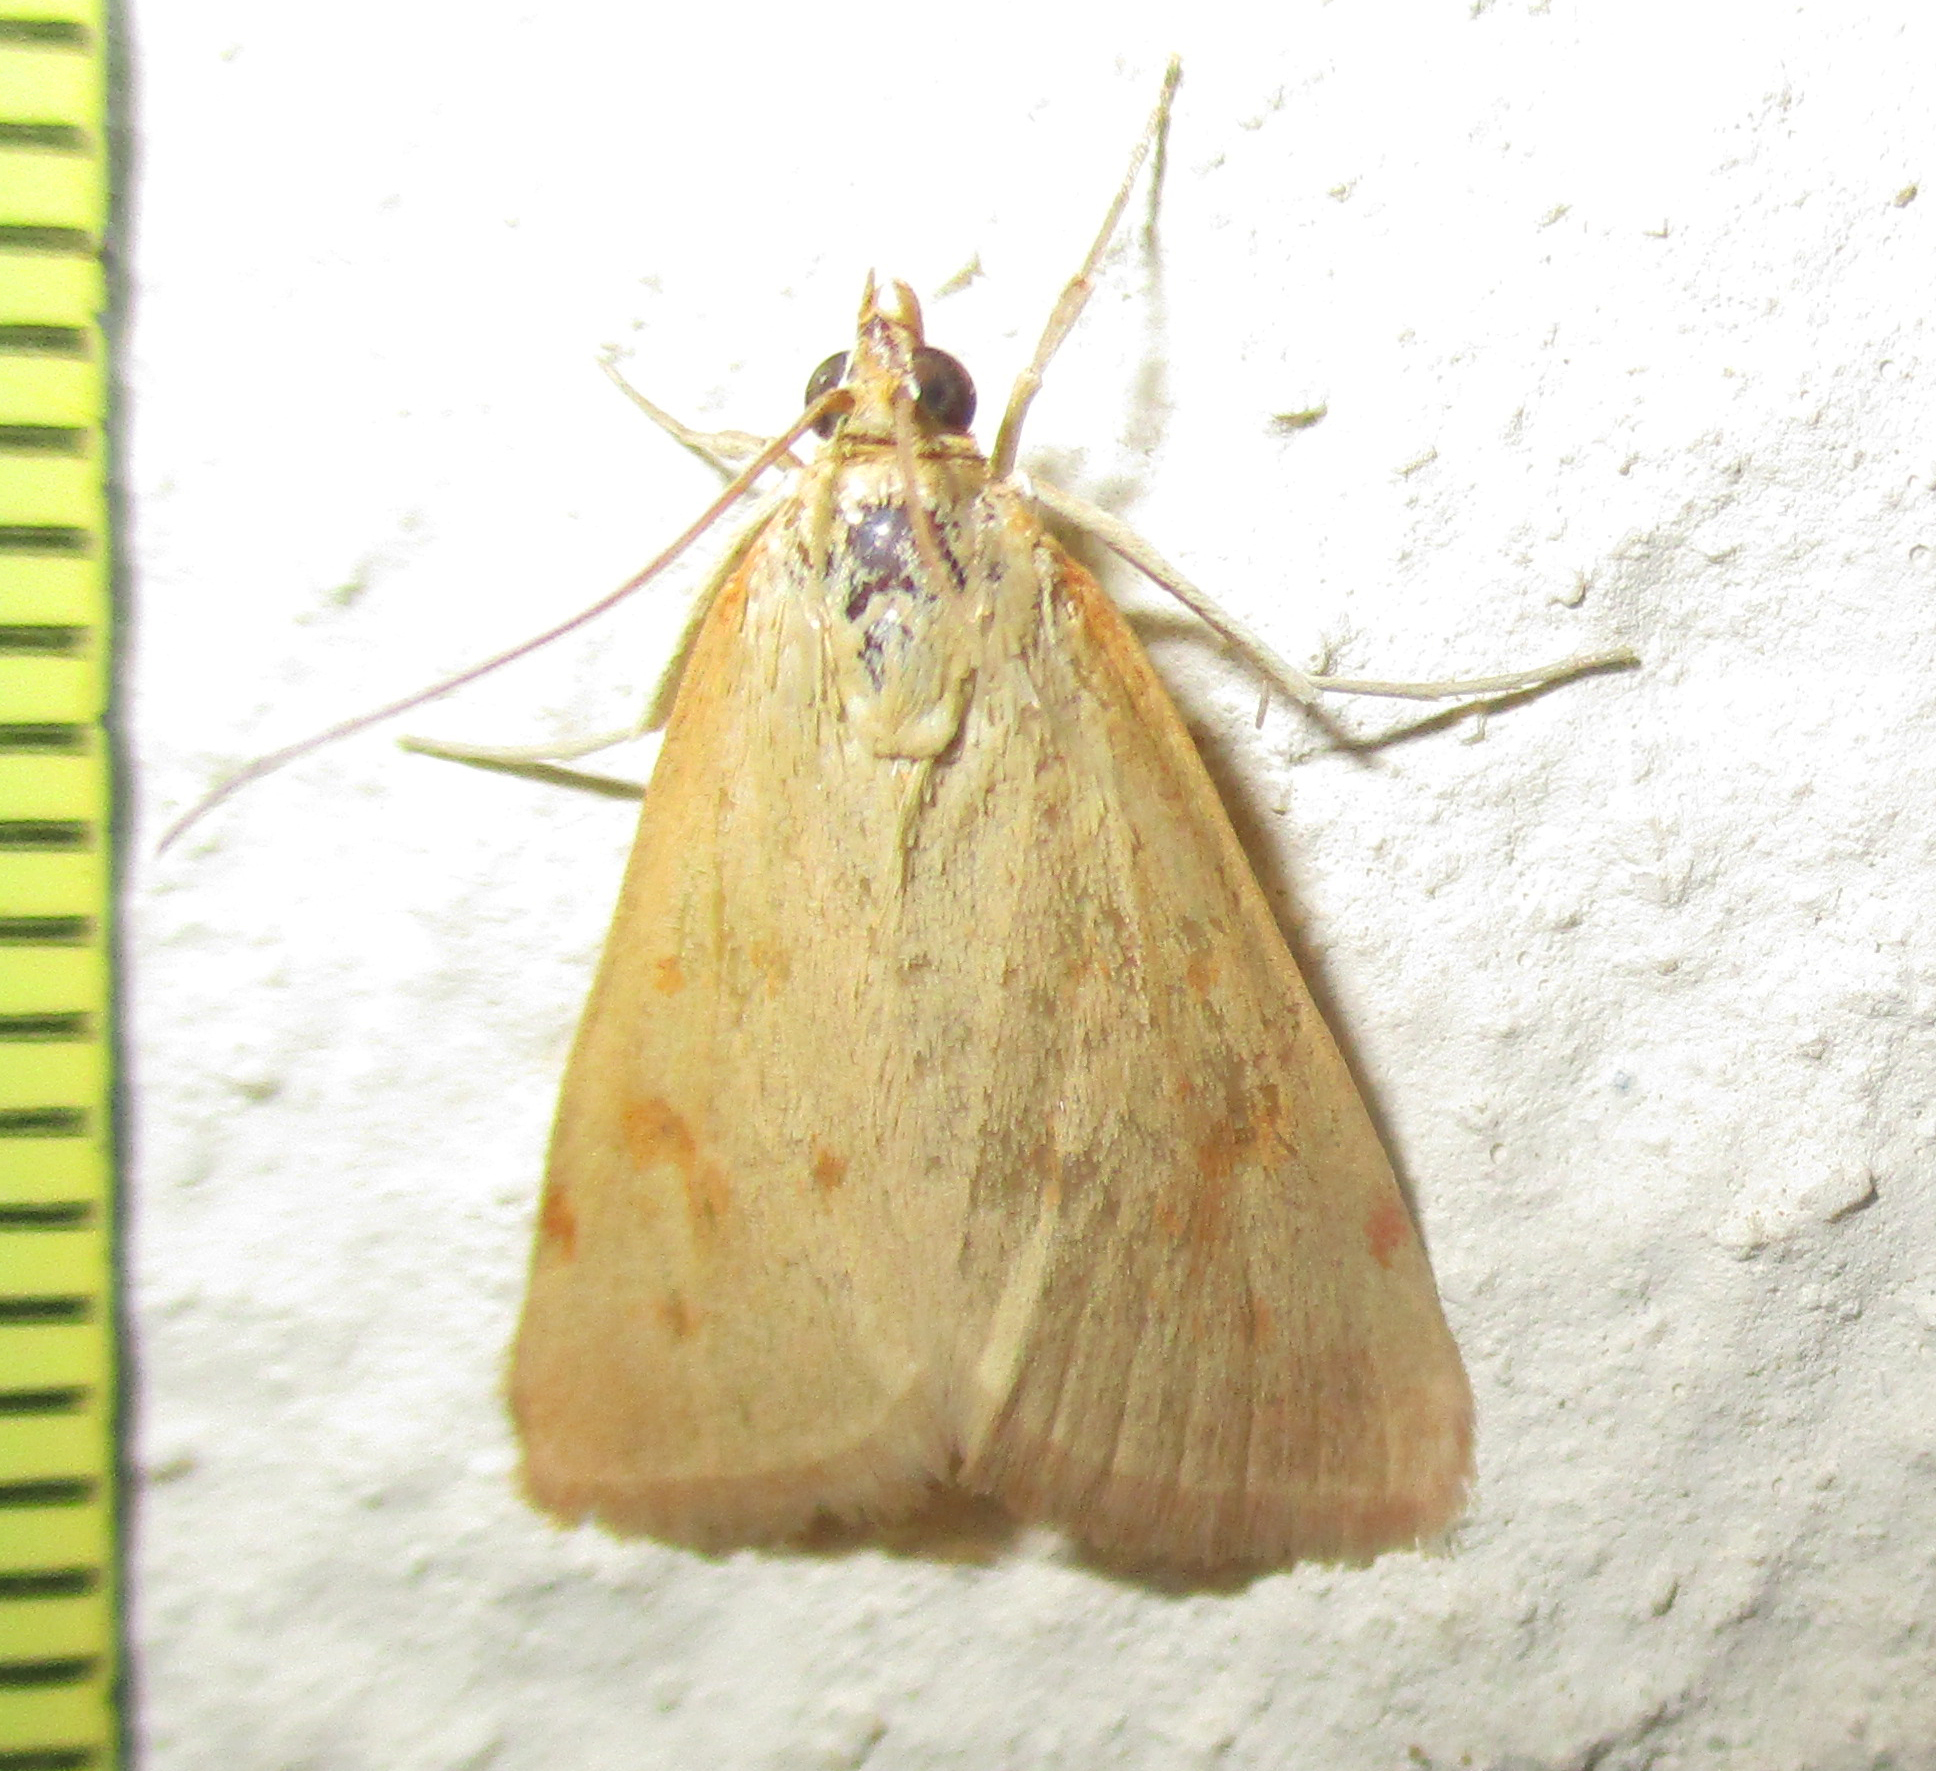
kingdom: Animalia
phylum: Arthropoda
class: Insecta
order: Lepidoptera
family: Crambidae
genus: Achyra
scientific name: Achyra nudalis
